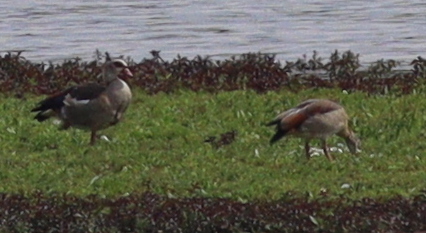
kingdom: Animalia
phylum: Chordata
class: Aves
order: Anseriformes
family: Anatidae
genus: Alopochen
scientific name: Alopochen aegyptiaca
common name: Egyptian goose
